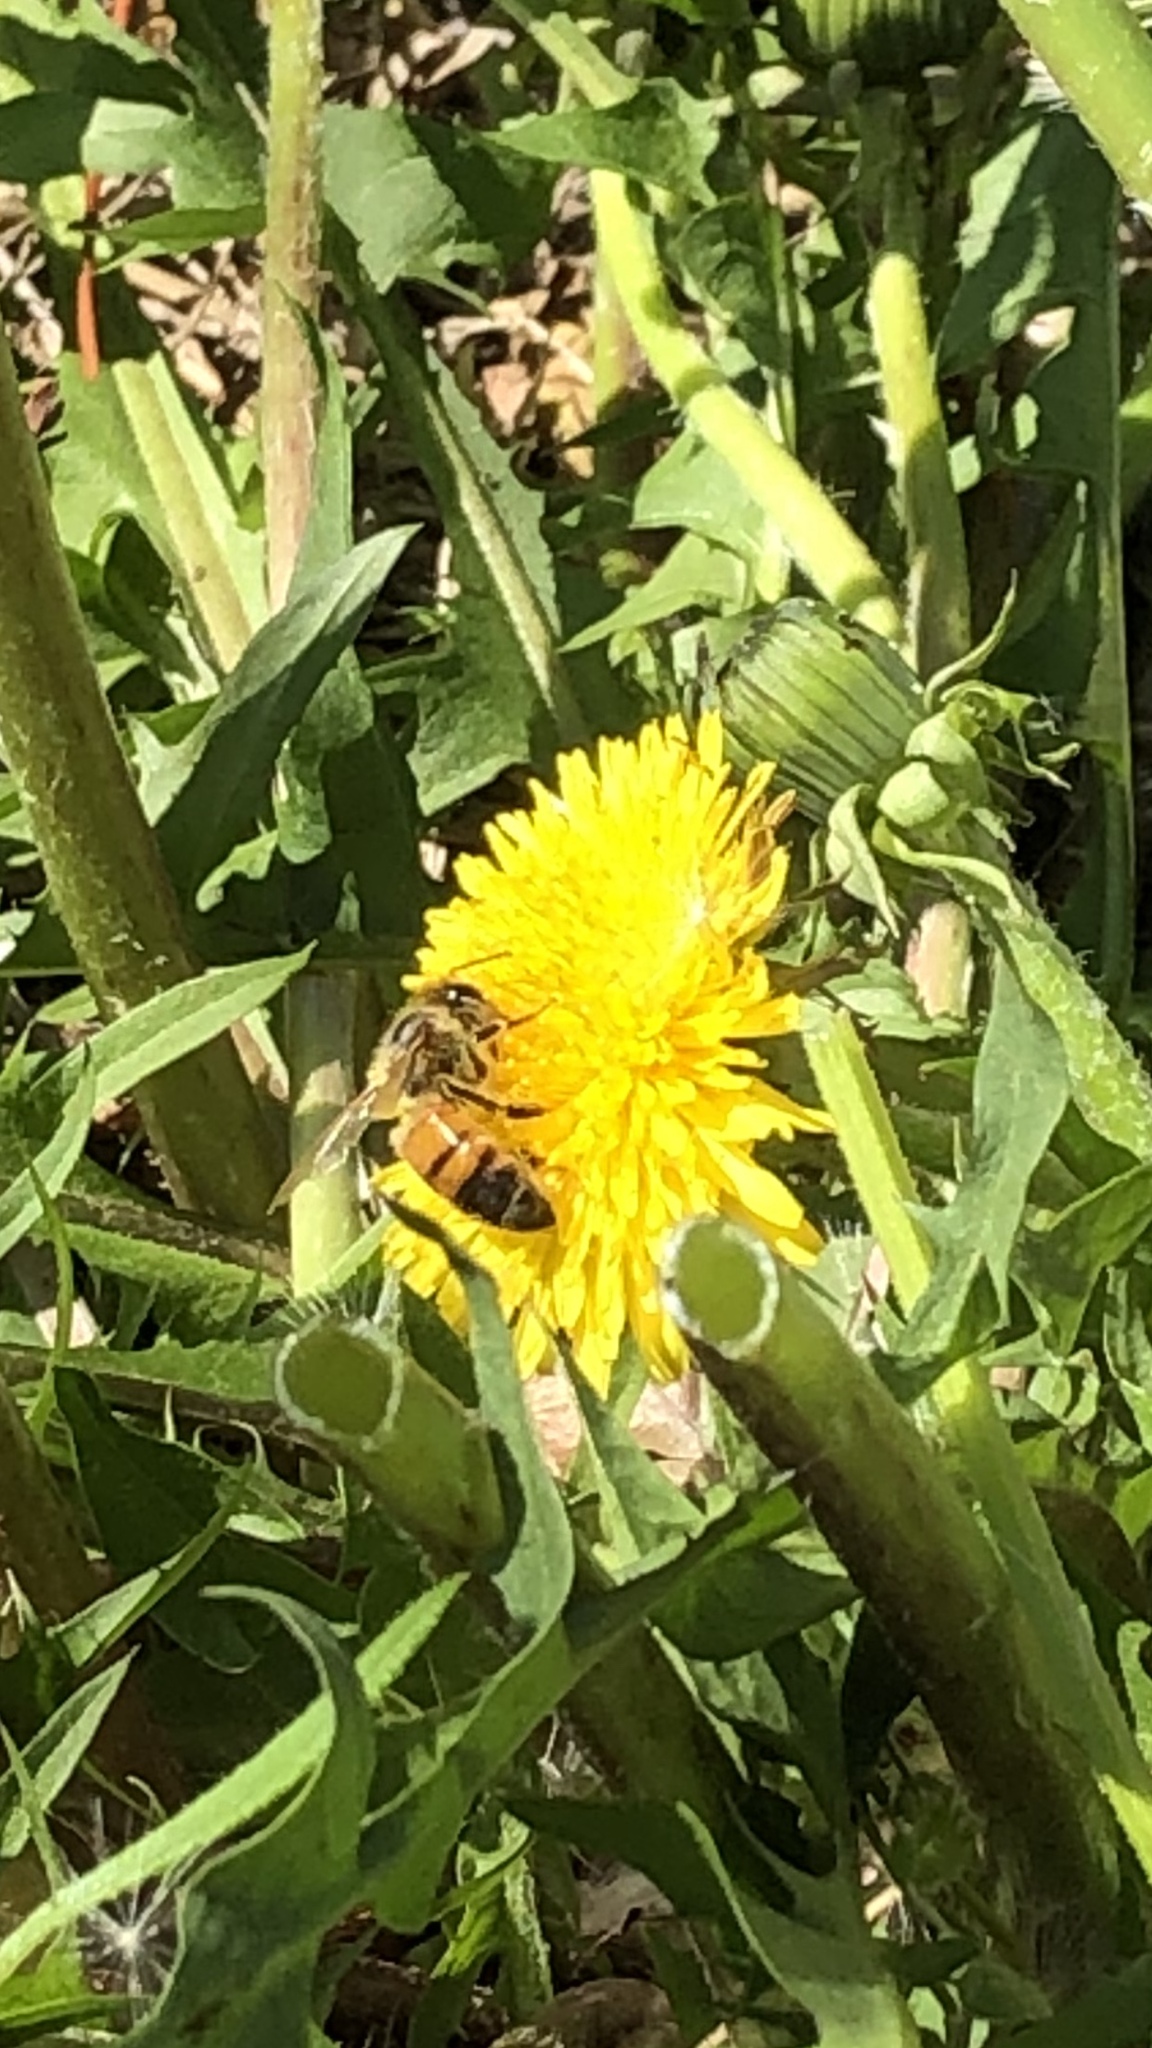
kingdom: Animalia
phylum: Arthropoda
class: Insecta
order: Hymenoptera
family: Apidae
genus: Apis
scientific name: Apis mellifera
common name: Honey bee
